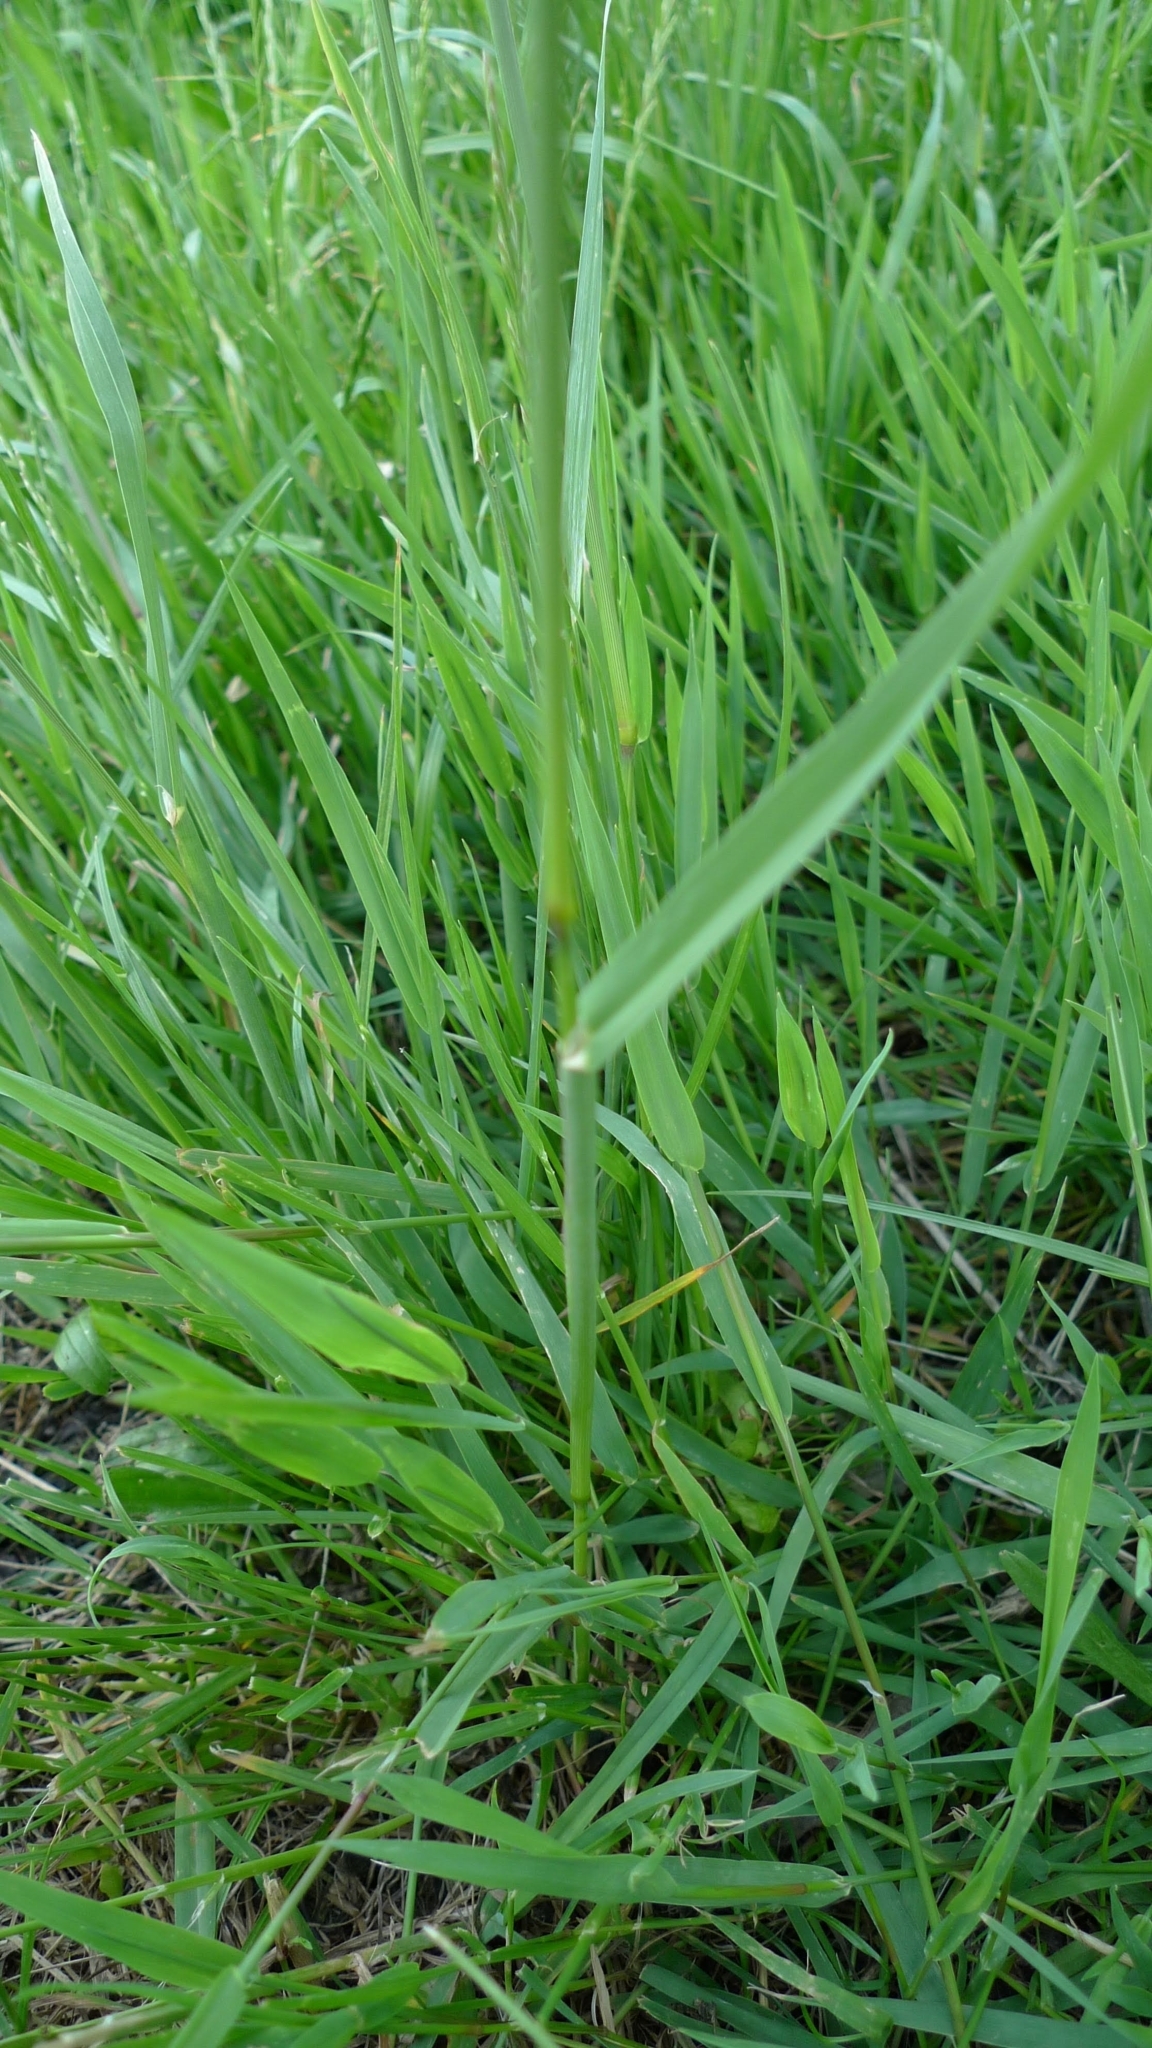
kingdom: Plantae
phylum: Tracheophyta
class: Liliopsida
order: Poales
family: Poaceae
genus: Dactylis
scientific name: Dactylis glomerata
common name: Orchardgrass
